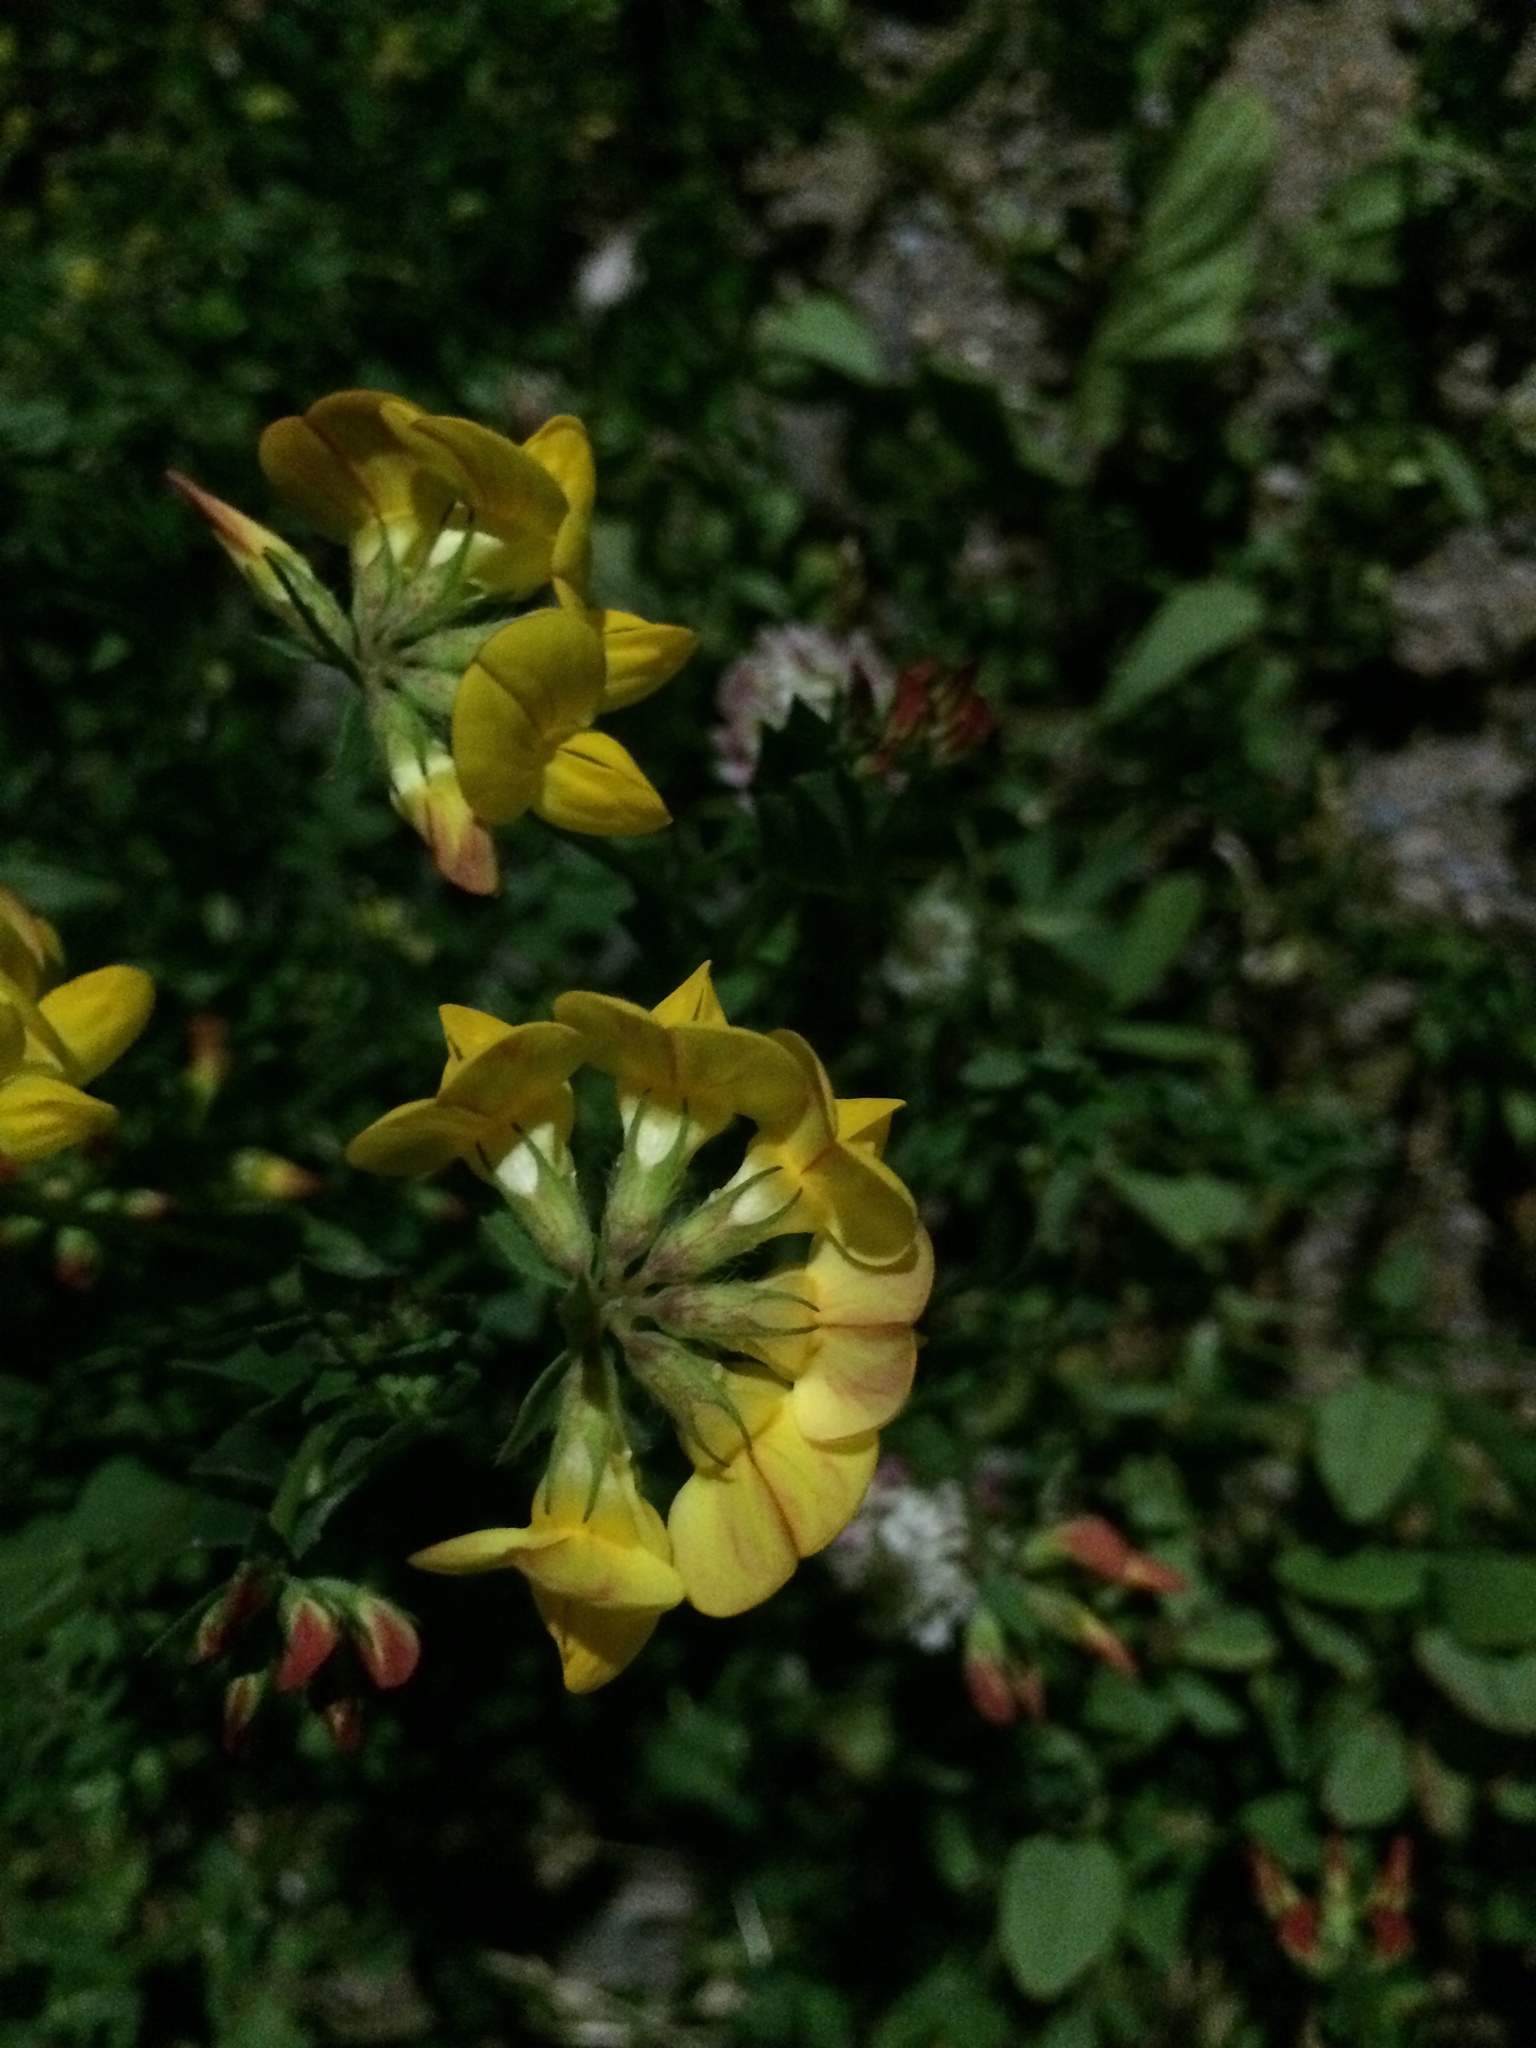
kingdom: Plantae
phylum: Tracheophyta
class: Magnoliopsida
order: Fabales
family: Fabaceae
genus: Lotus
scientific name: Lotus corniculatus
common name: Common bird's-foot-trefoil
